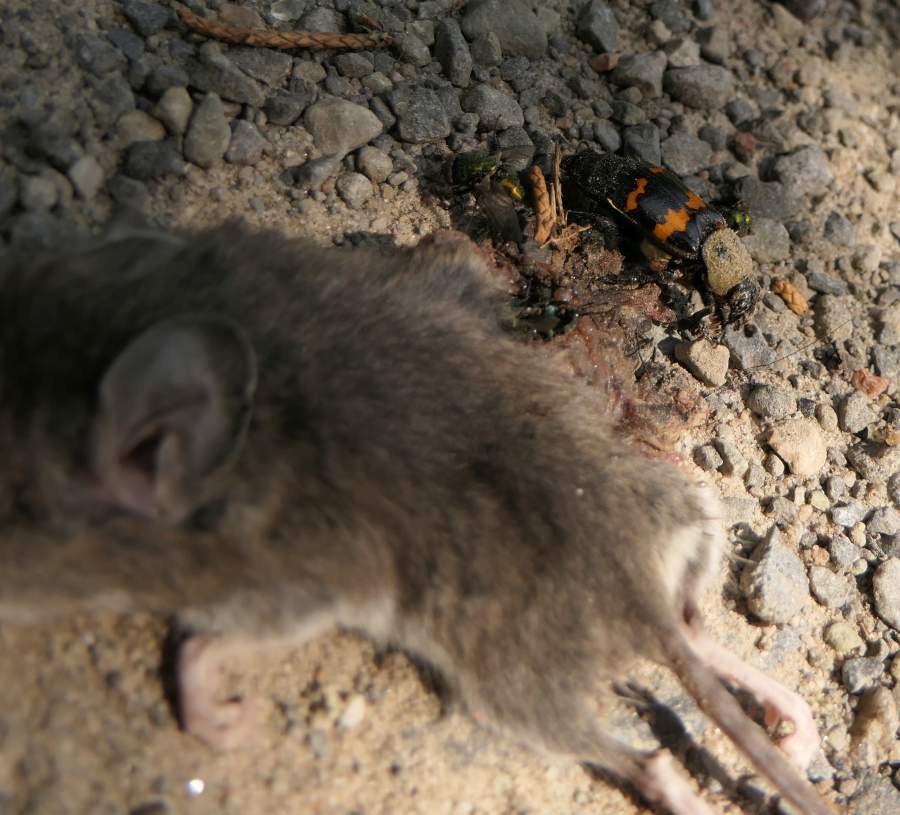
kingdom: Animalia
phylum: Arthropoda
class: Insecta
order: Coleoptera
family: Staphylinidae
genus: Nicrophorus
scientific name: Nicrophorus tomentosus
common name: Tomentose burying beetle
